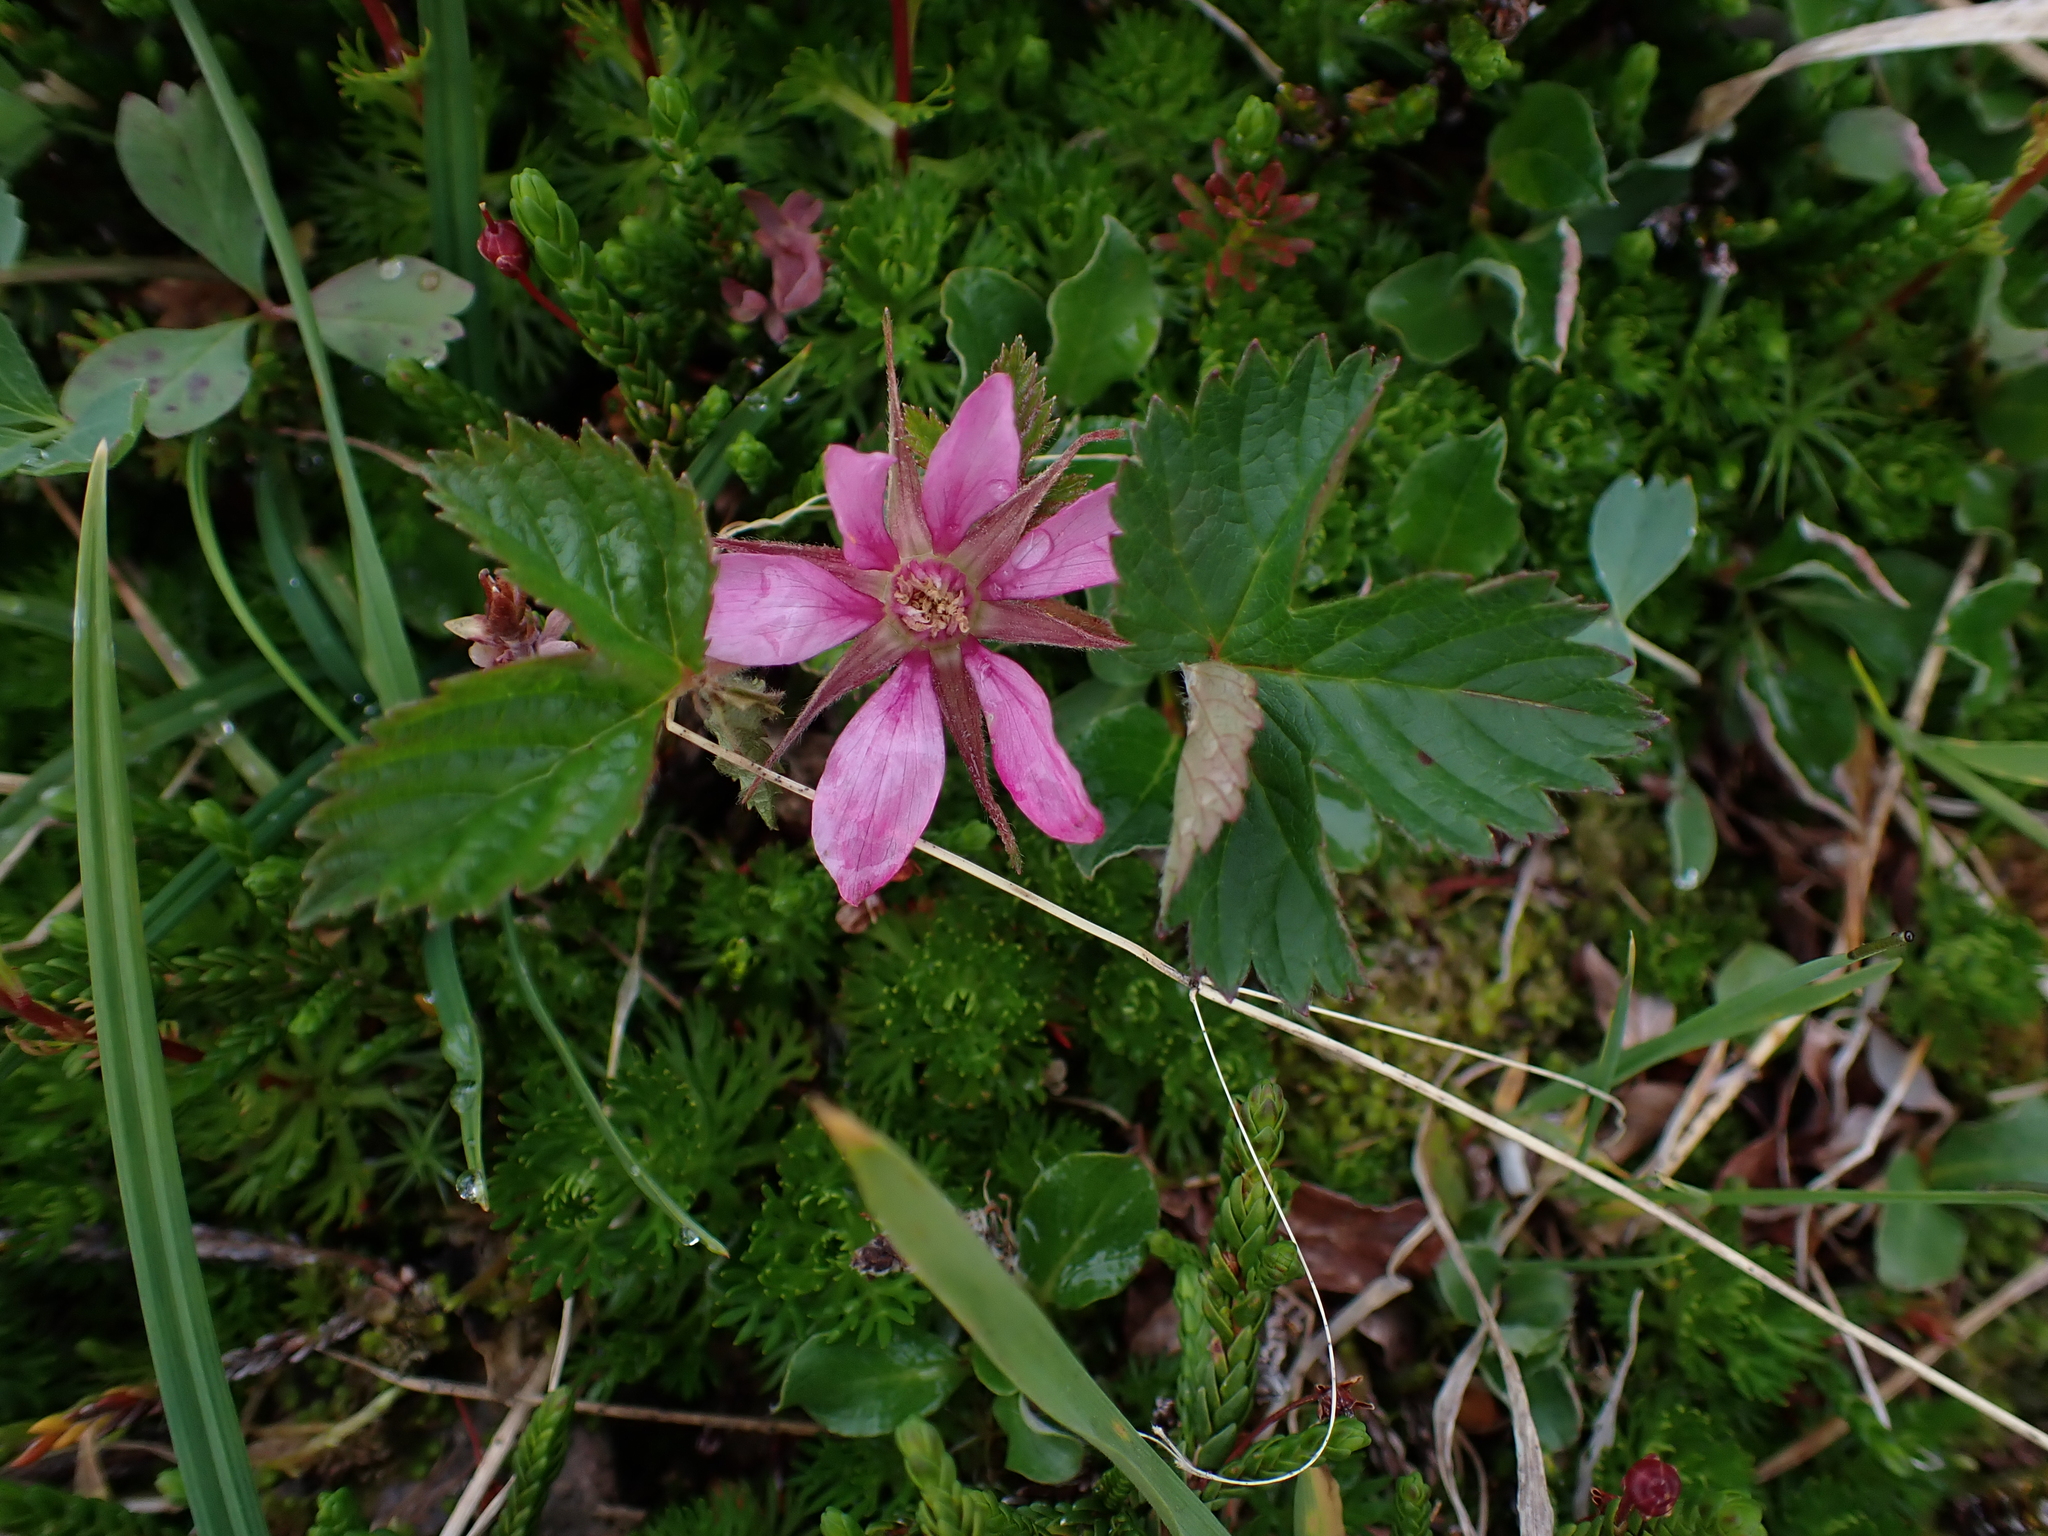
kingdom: Plantae
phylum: Tracheophyta
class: Magnoliopsida
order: Rosales
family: Rosaceae
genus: Rubus
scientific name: Rubus arcticus
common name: Arctic bramble
